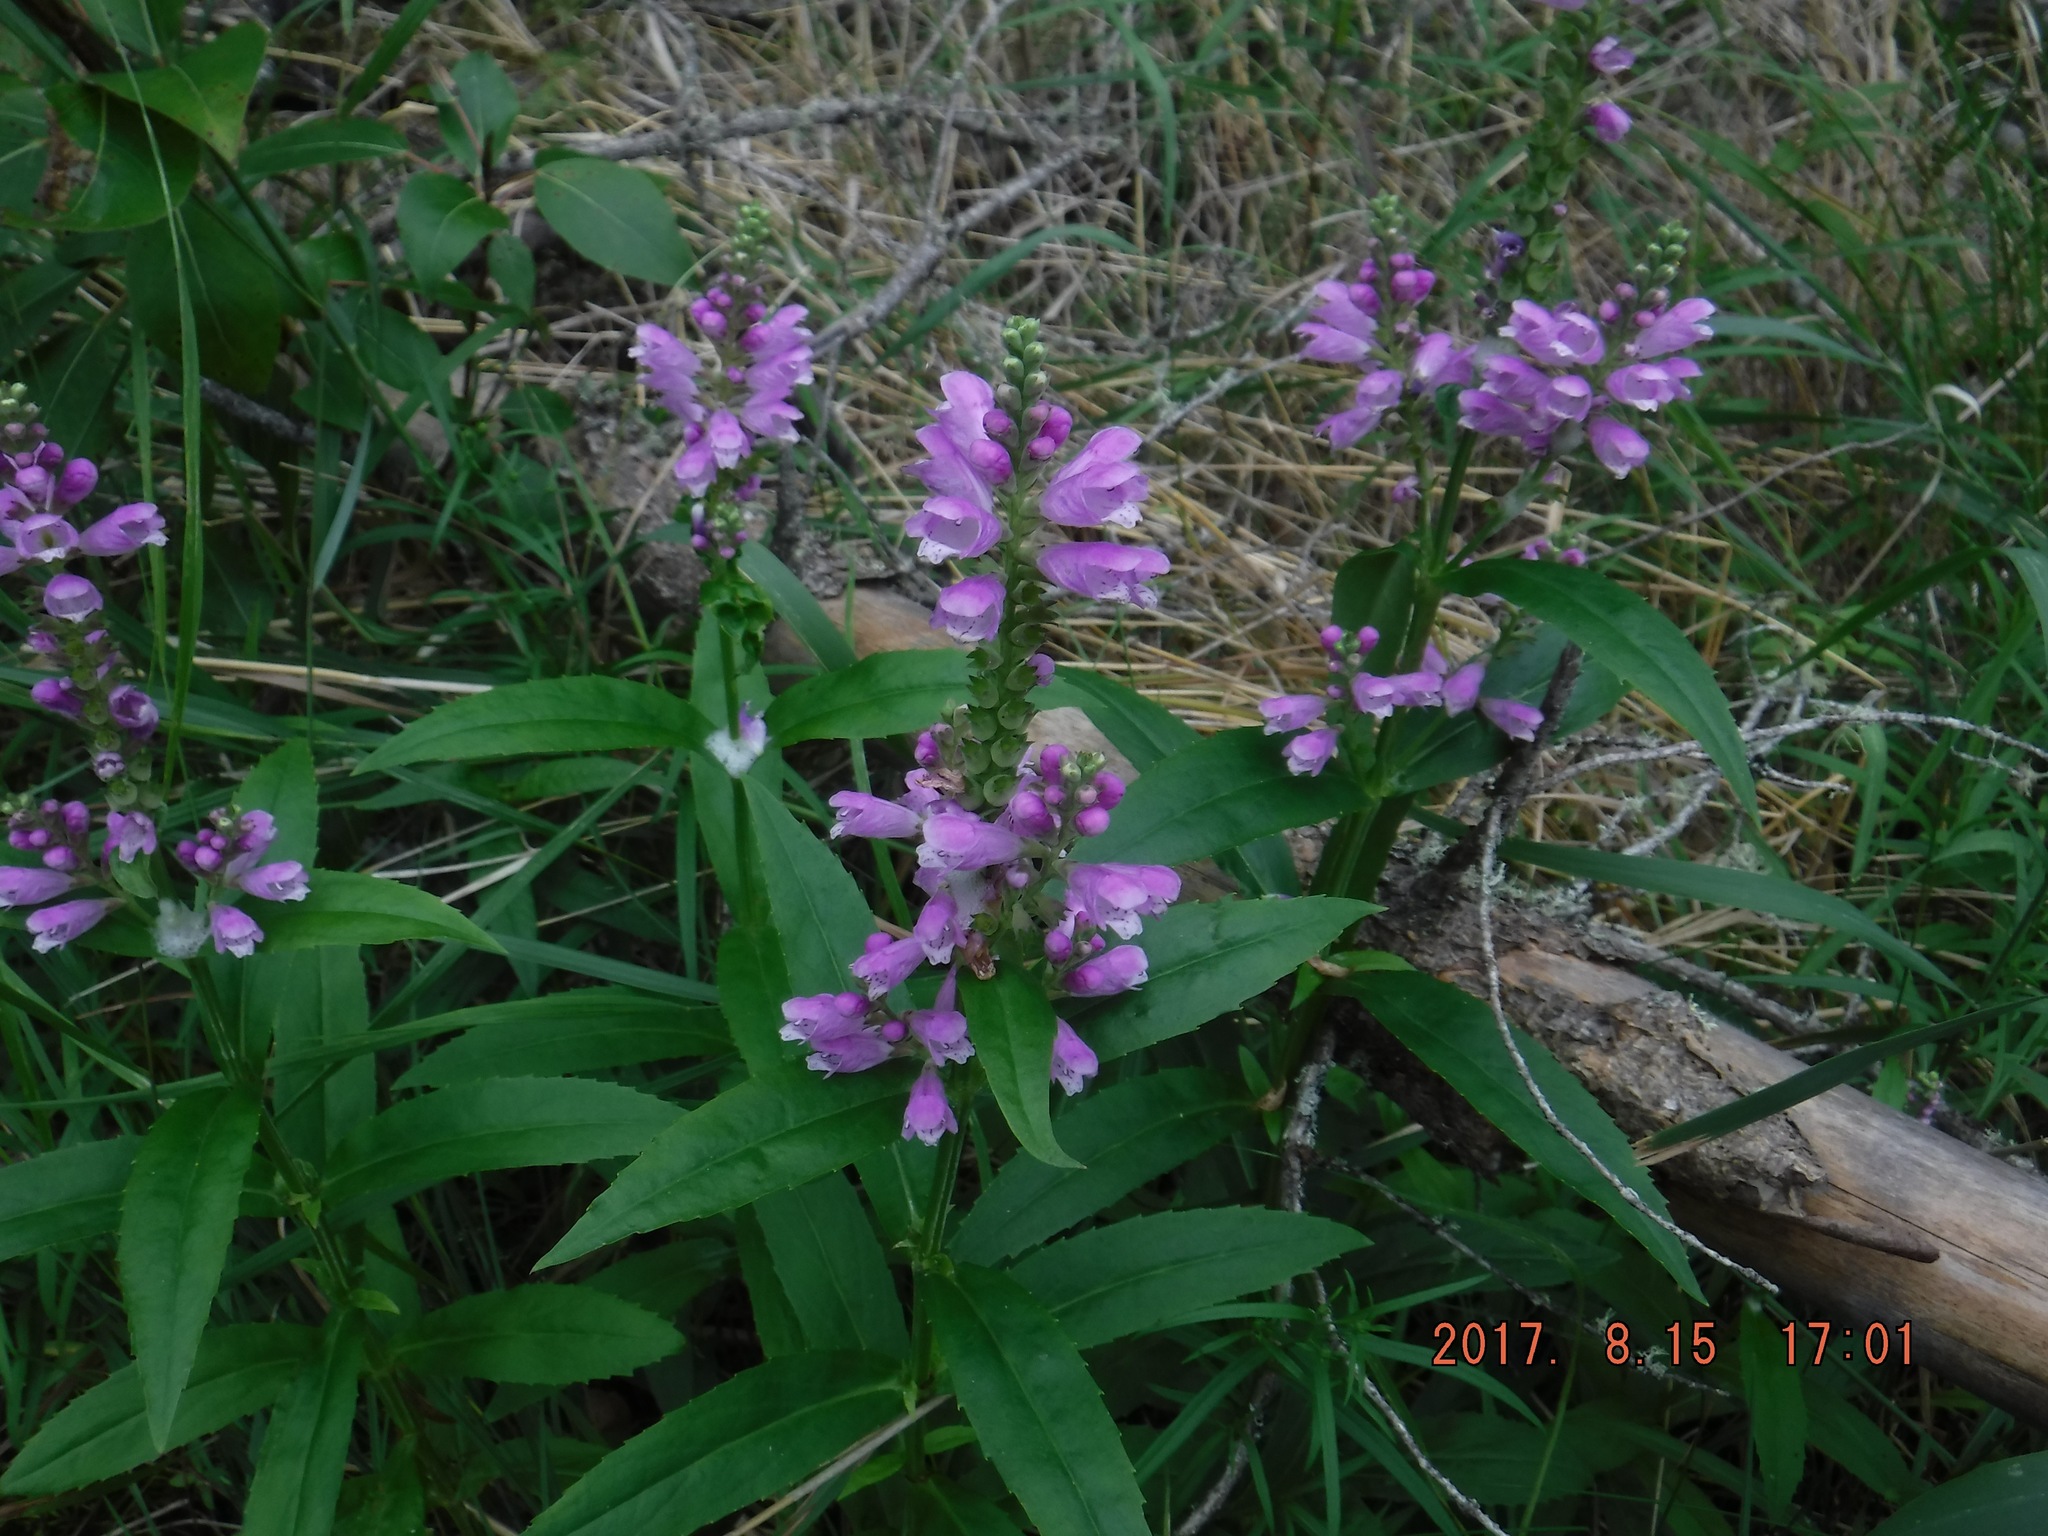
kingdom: Plantae
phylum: Tracheophyta
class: Magnoliopsida
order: Lamiales
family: Lamiaceae
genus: Physostegia
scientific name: Physostegia virginiana
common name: Obedient-plant
